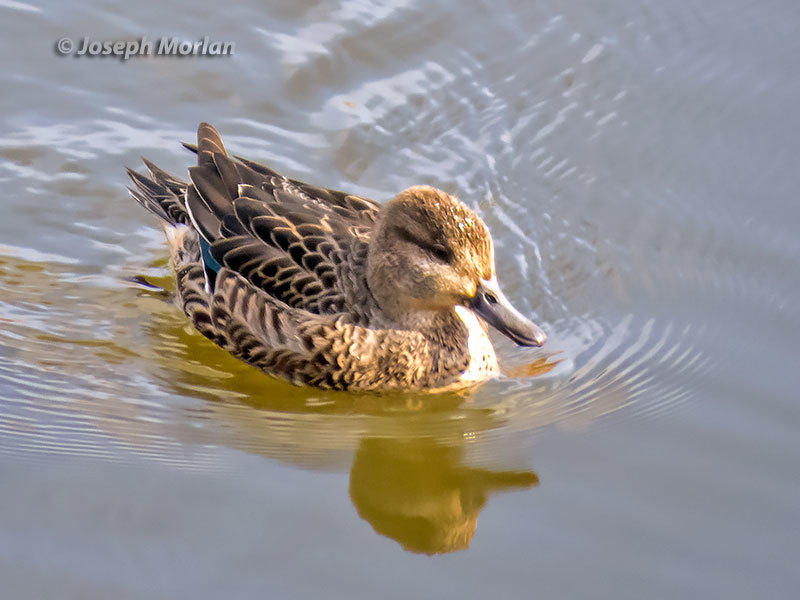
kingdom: Animalia
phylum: Chordata
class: Aves
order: Anseriformes
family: Anatidae
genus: Anas
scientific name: Anas crecca
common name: Eurasian teal
